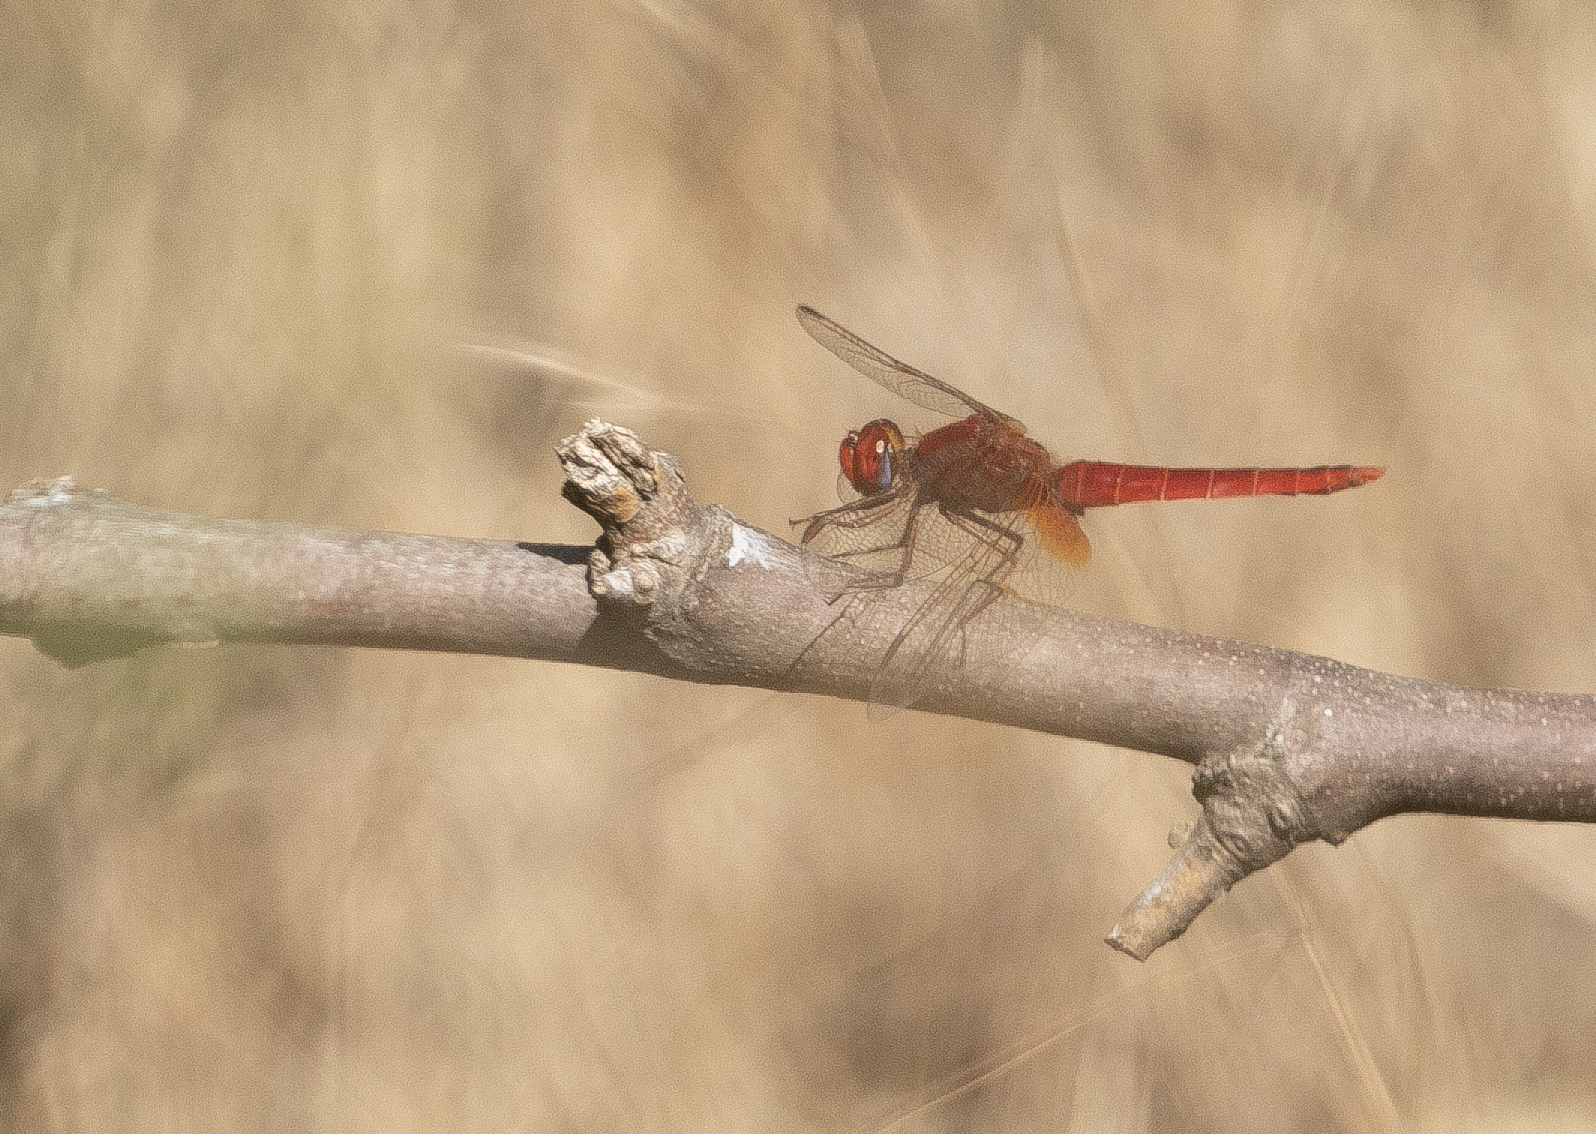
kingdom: Animalia
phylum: Arthropoda
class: Insecta
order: Odonata
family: Libellulidae
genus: Crocothemis
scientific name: Crocothemis erythraea
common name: Scarlet dragonfly
